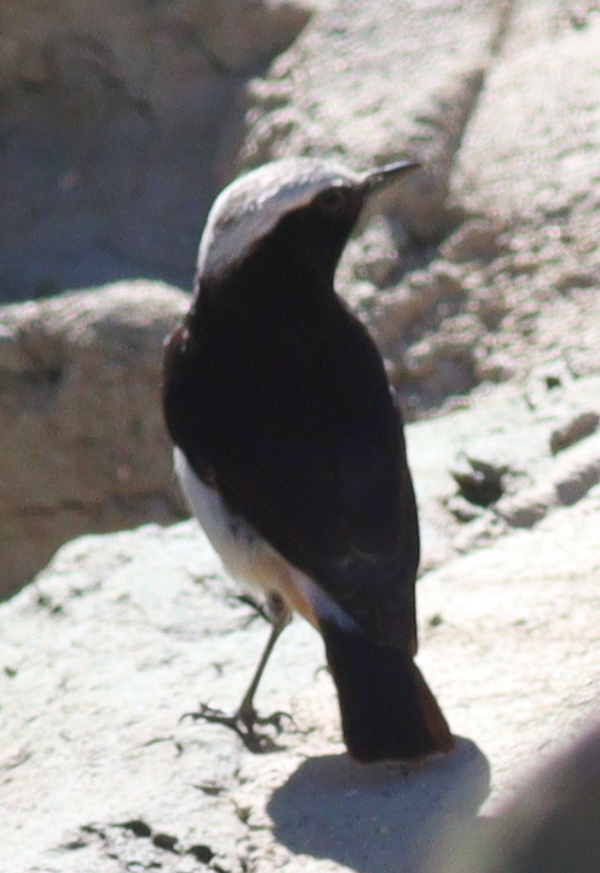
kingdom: Animalia
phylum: Chordata
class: Aves
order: Passeriformes
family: Muscicapidae
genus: Oenanthe
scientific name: Oenanthe lugentoides
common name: Arabian wheatear
